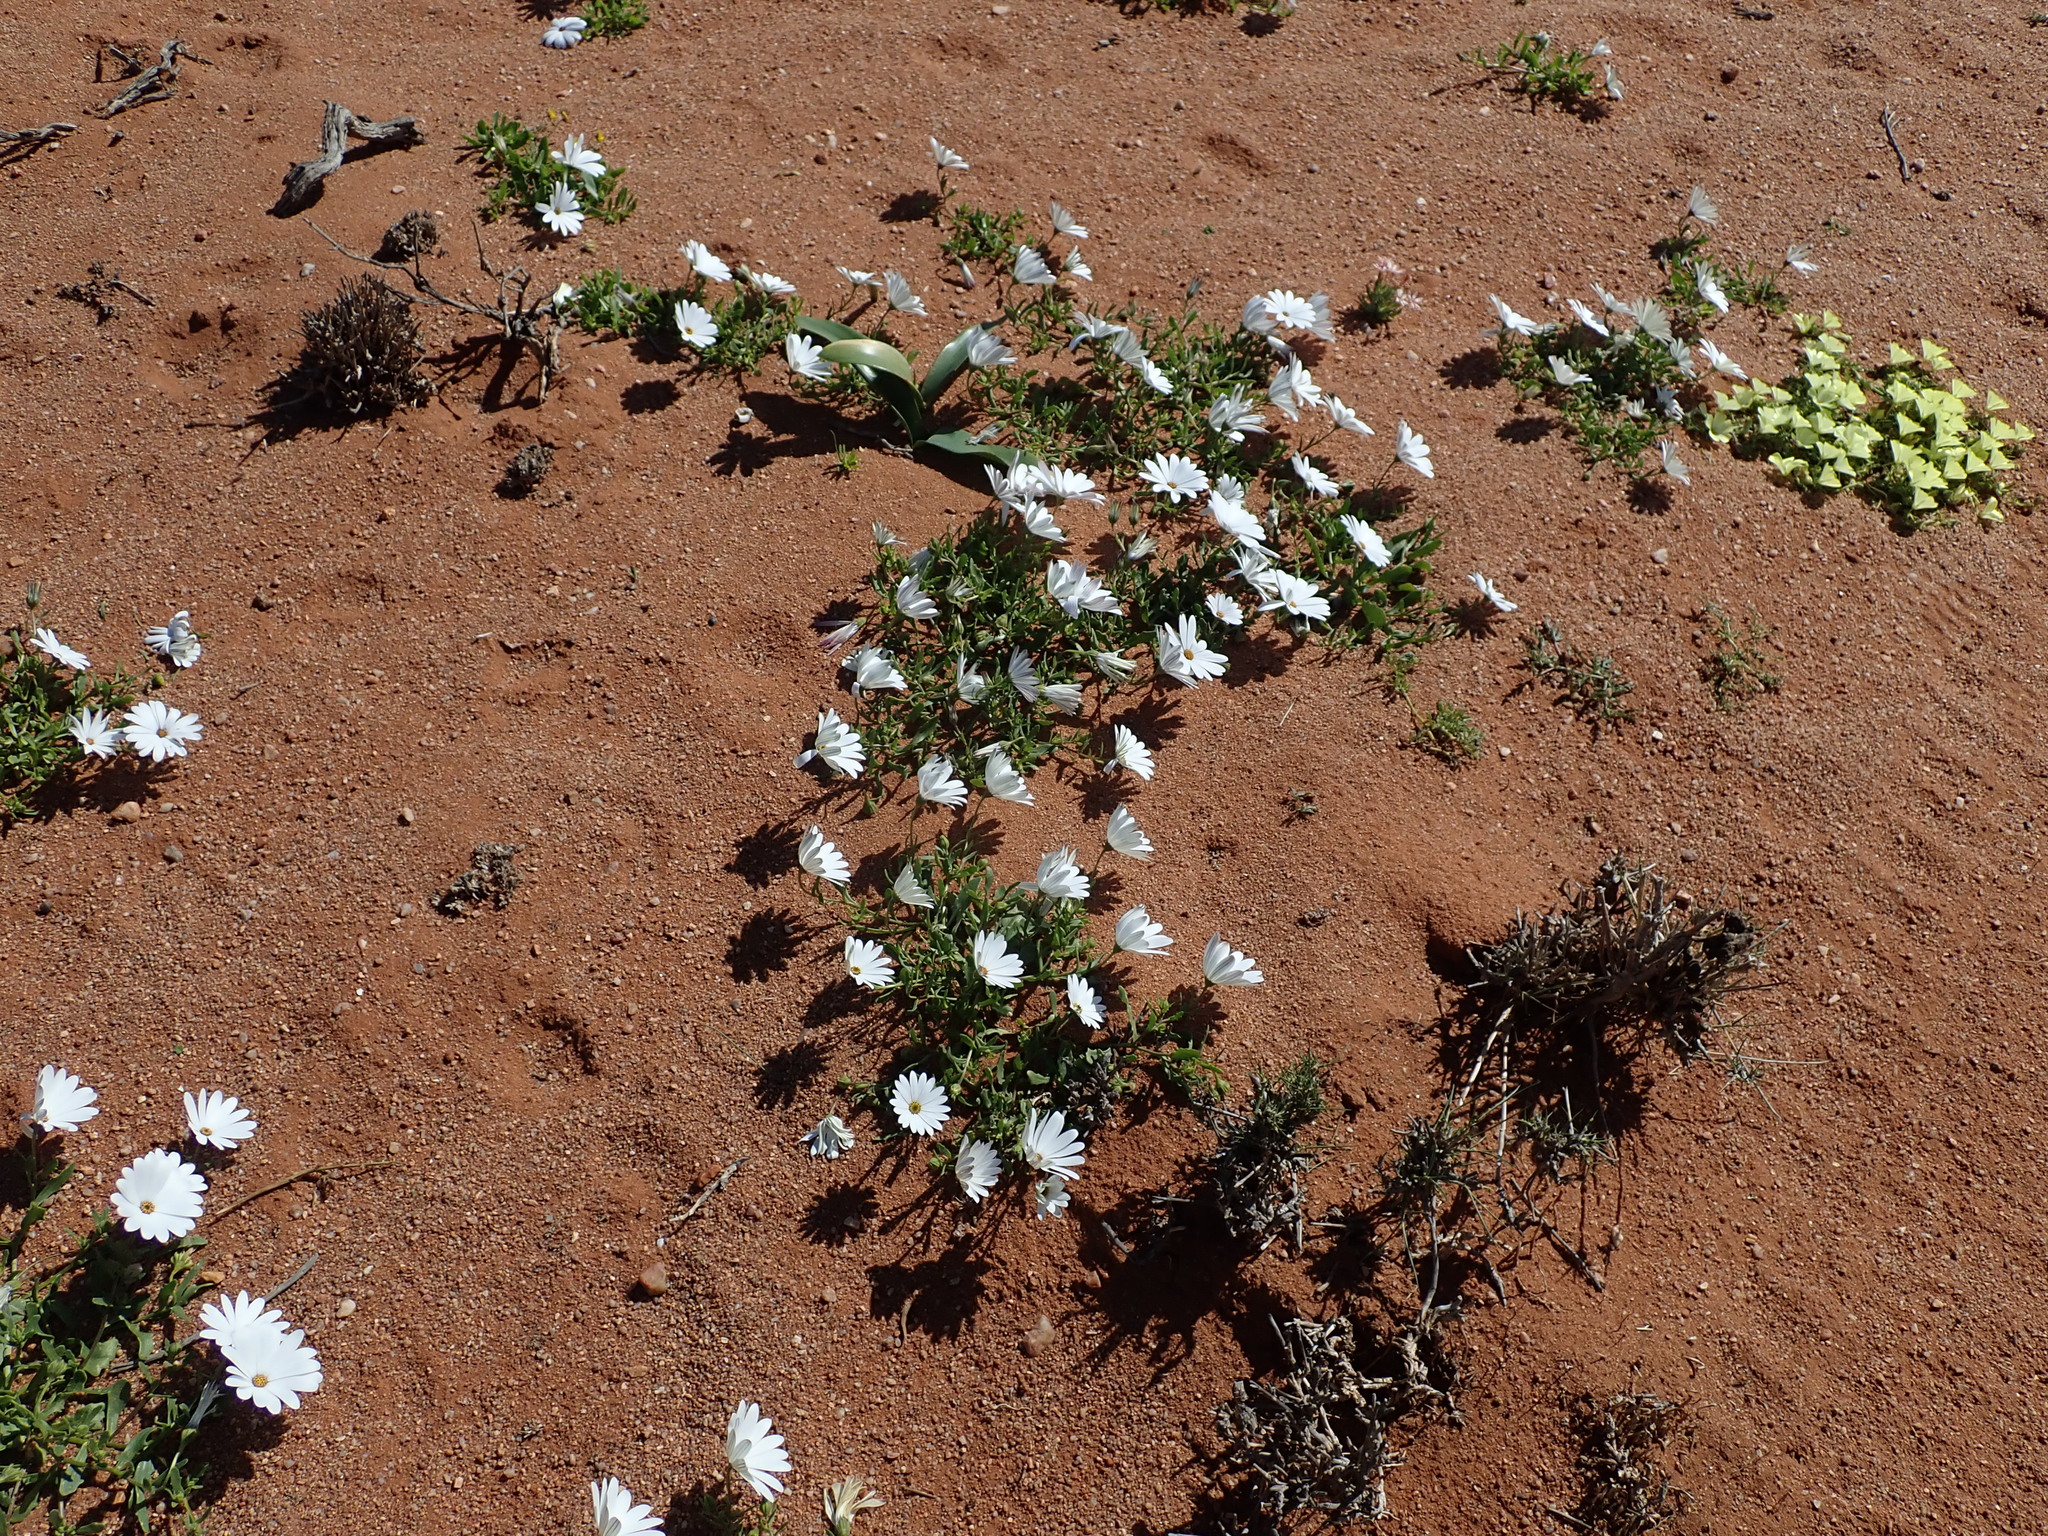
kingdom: Plantae
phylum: Tracheophyta
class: Magnoliopsida
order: Asterales
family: Asteraceae
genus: Dimorphotheca
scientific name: Dimorphotheca pluvialis
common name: Weather prophet
